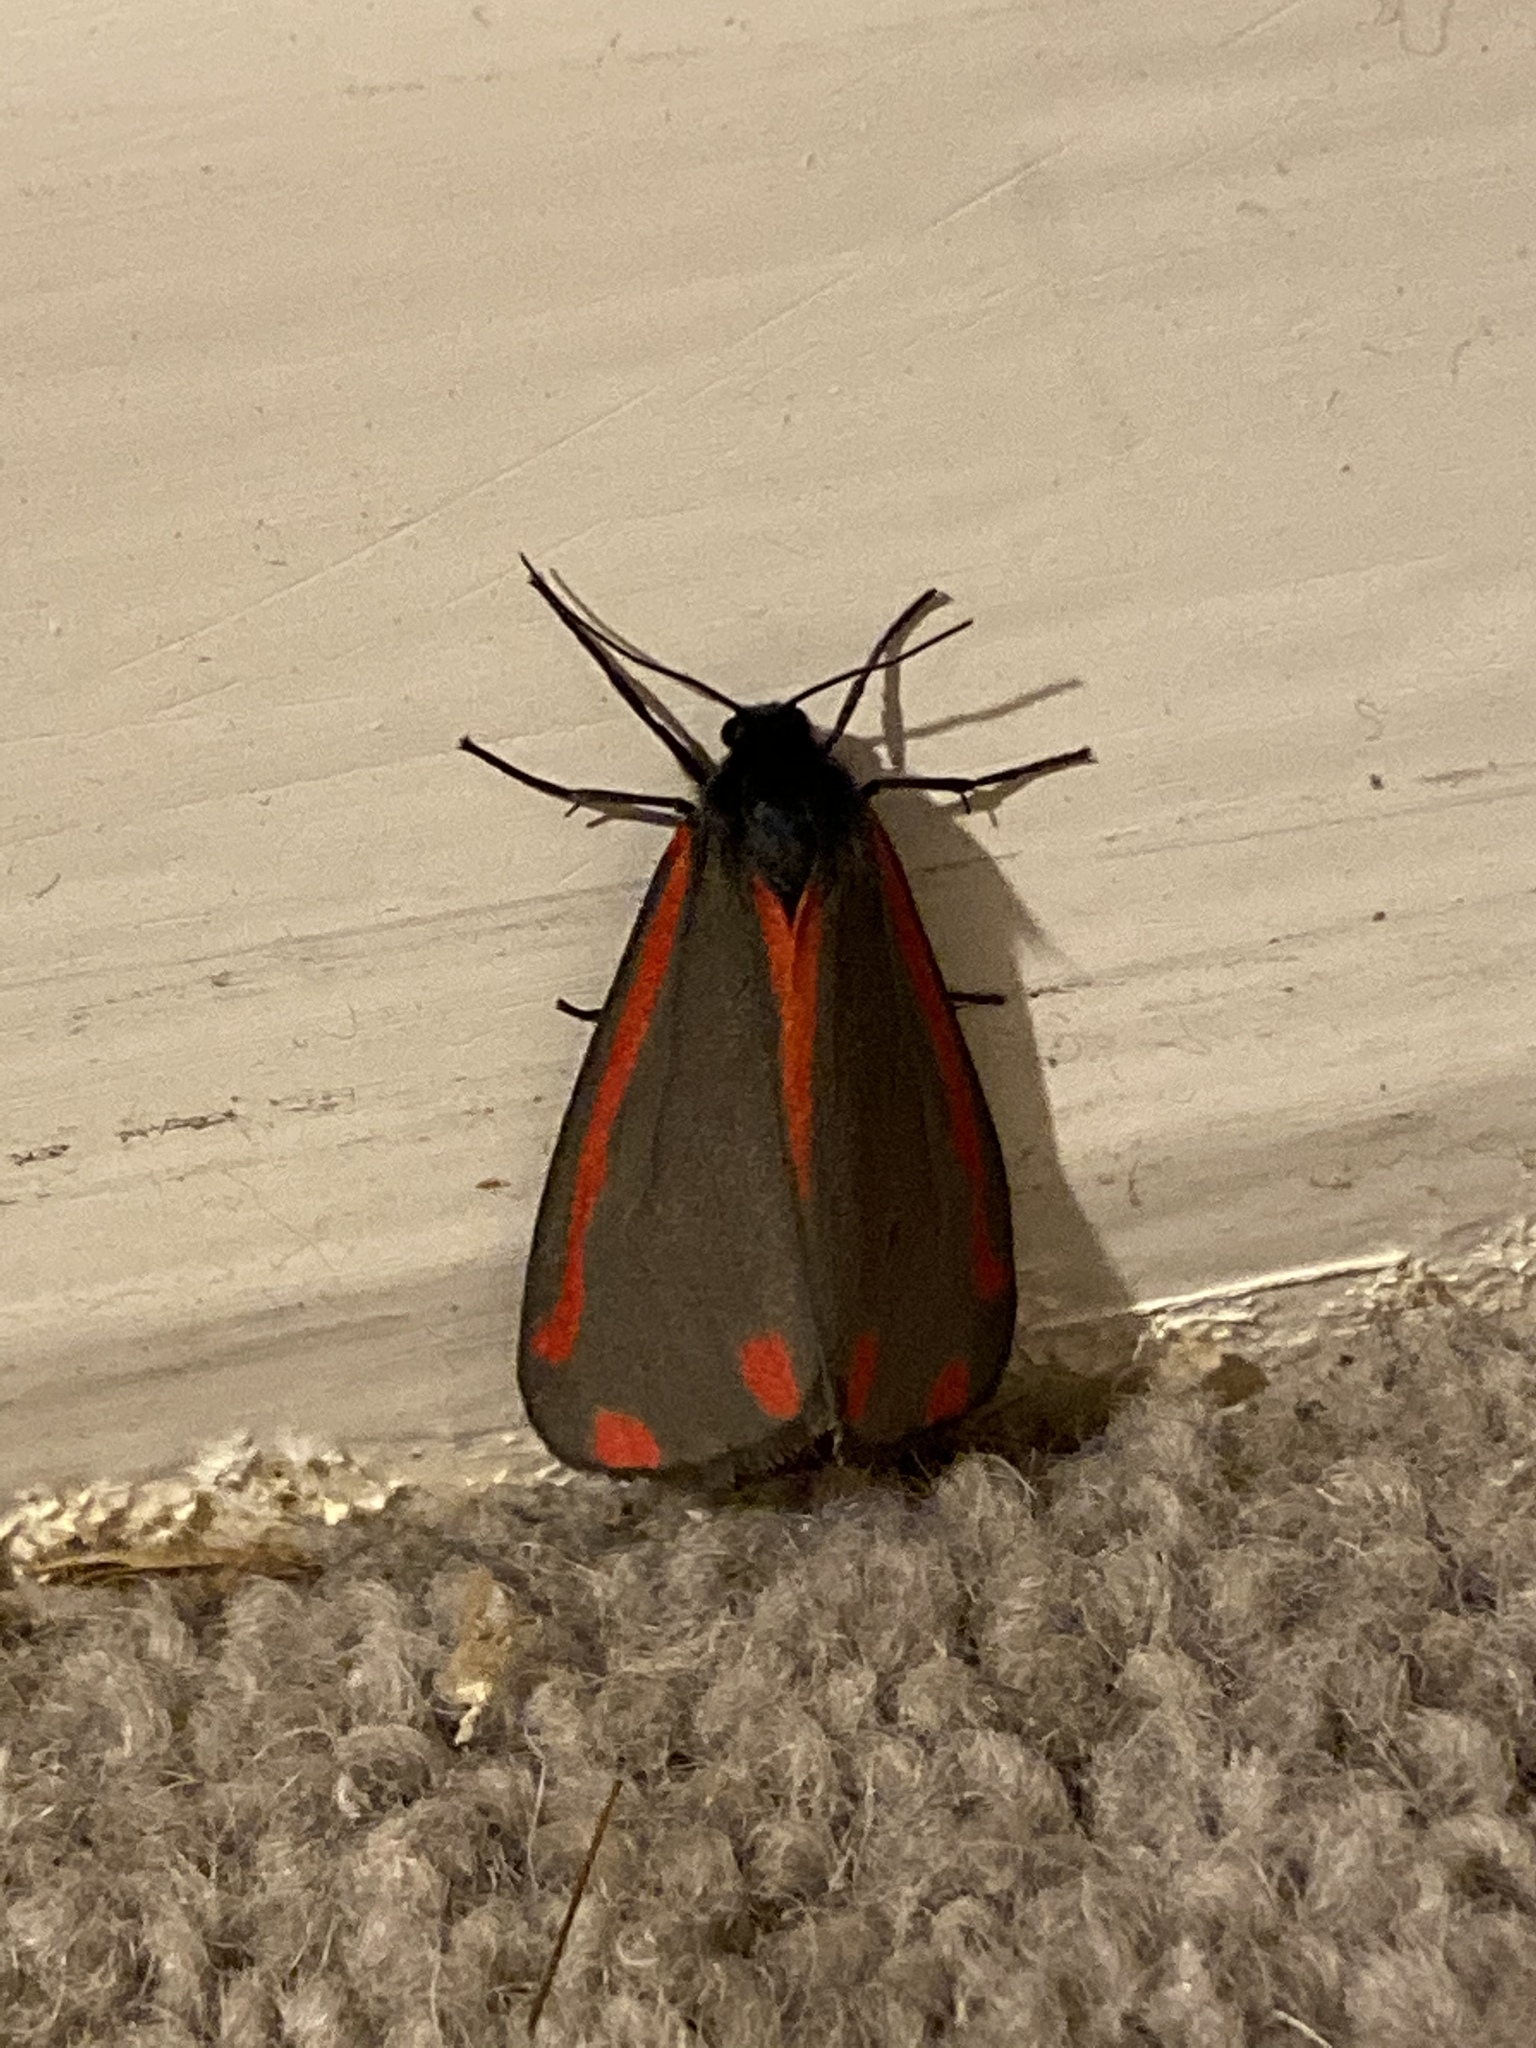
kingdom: Animalia
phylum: Arthropoda
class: Insecta
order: Lepidoptera
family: Erebidae
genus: Tyria
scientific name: Tyria jacobaeae
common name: Cinnabar
